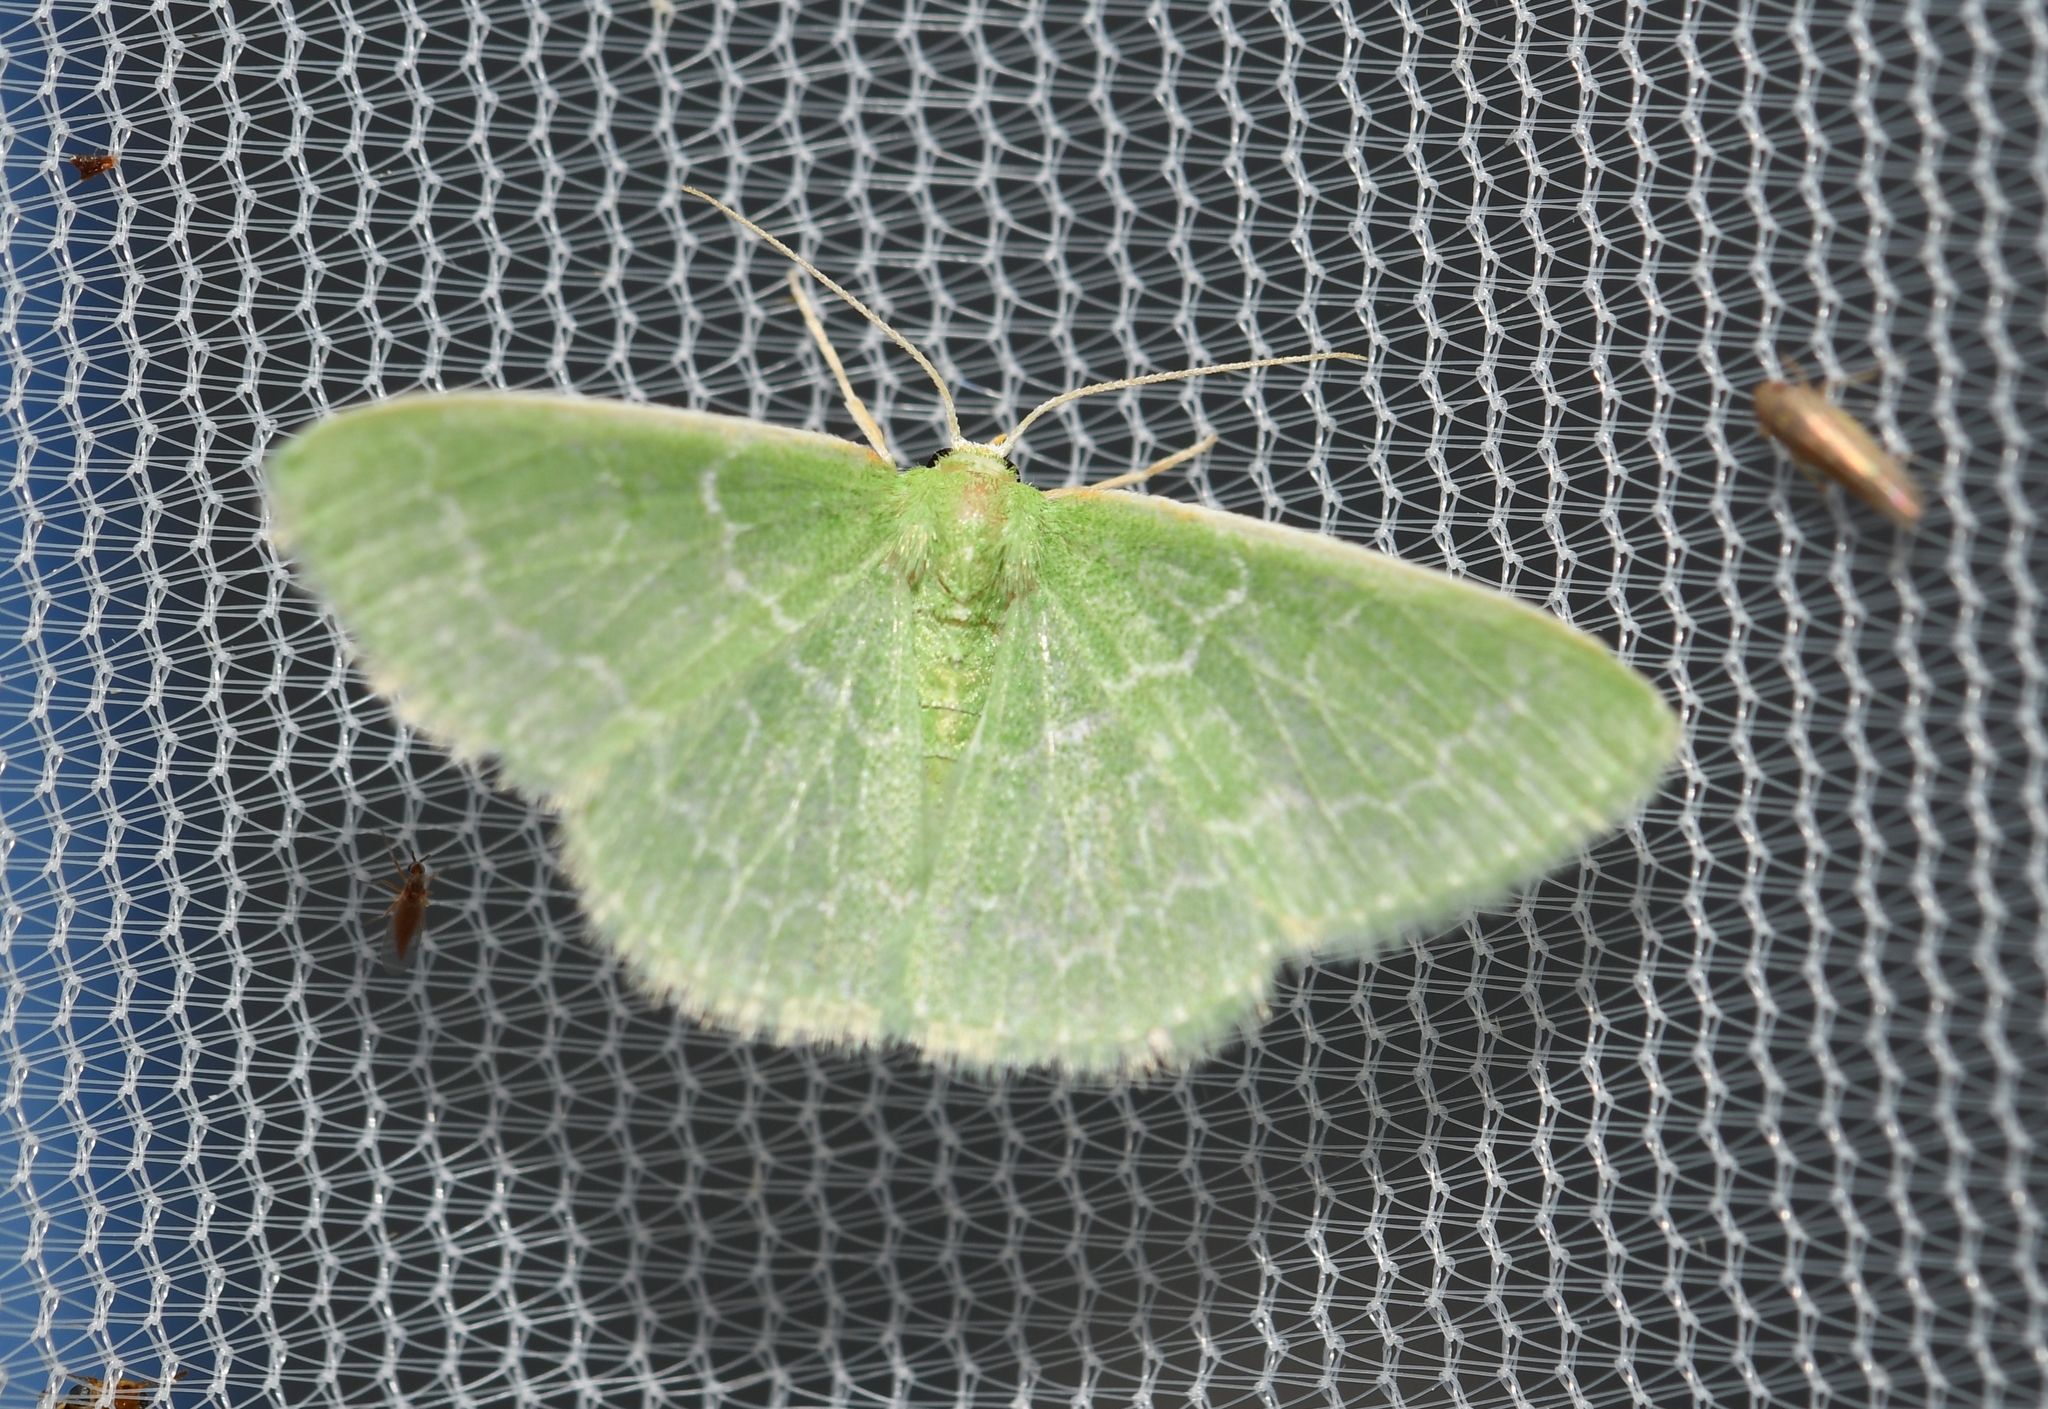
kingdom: Animalia
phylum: Arthropoda
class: Insecta
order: Lepidoptera
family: Geometridae
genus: Synchlora
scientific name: Synchlora frondaria
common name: Southern emerald
